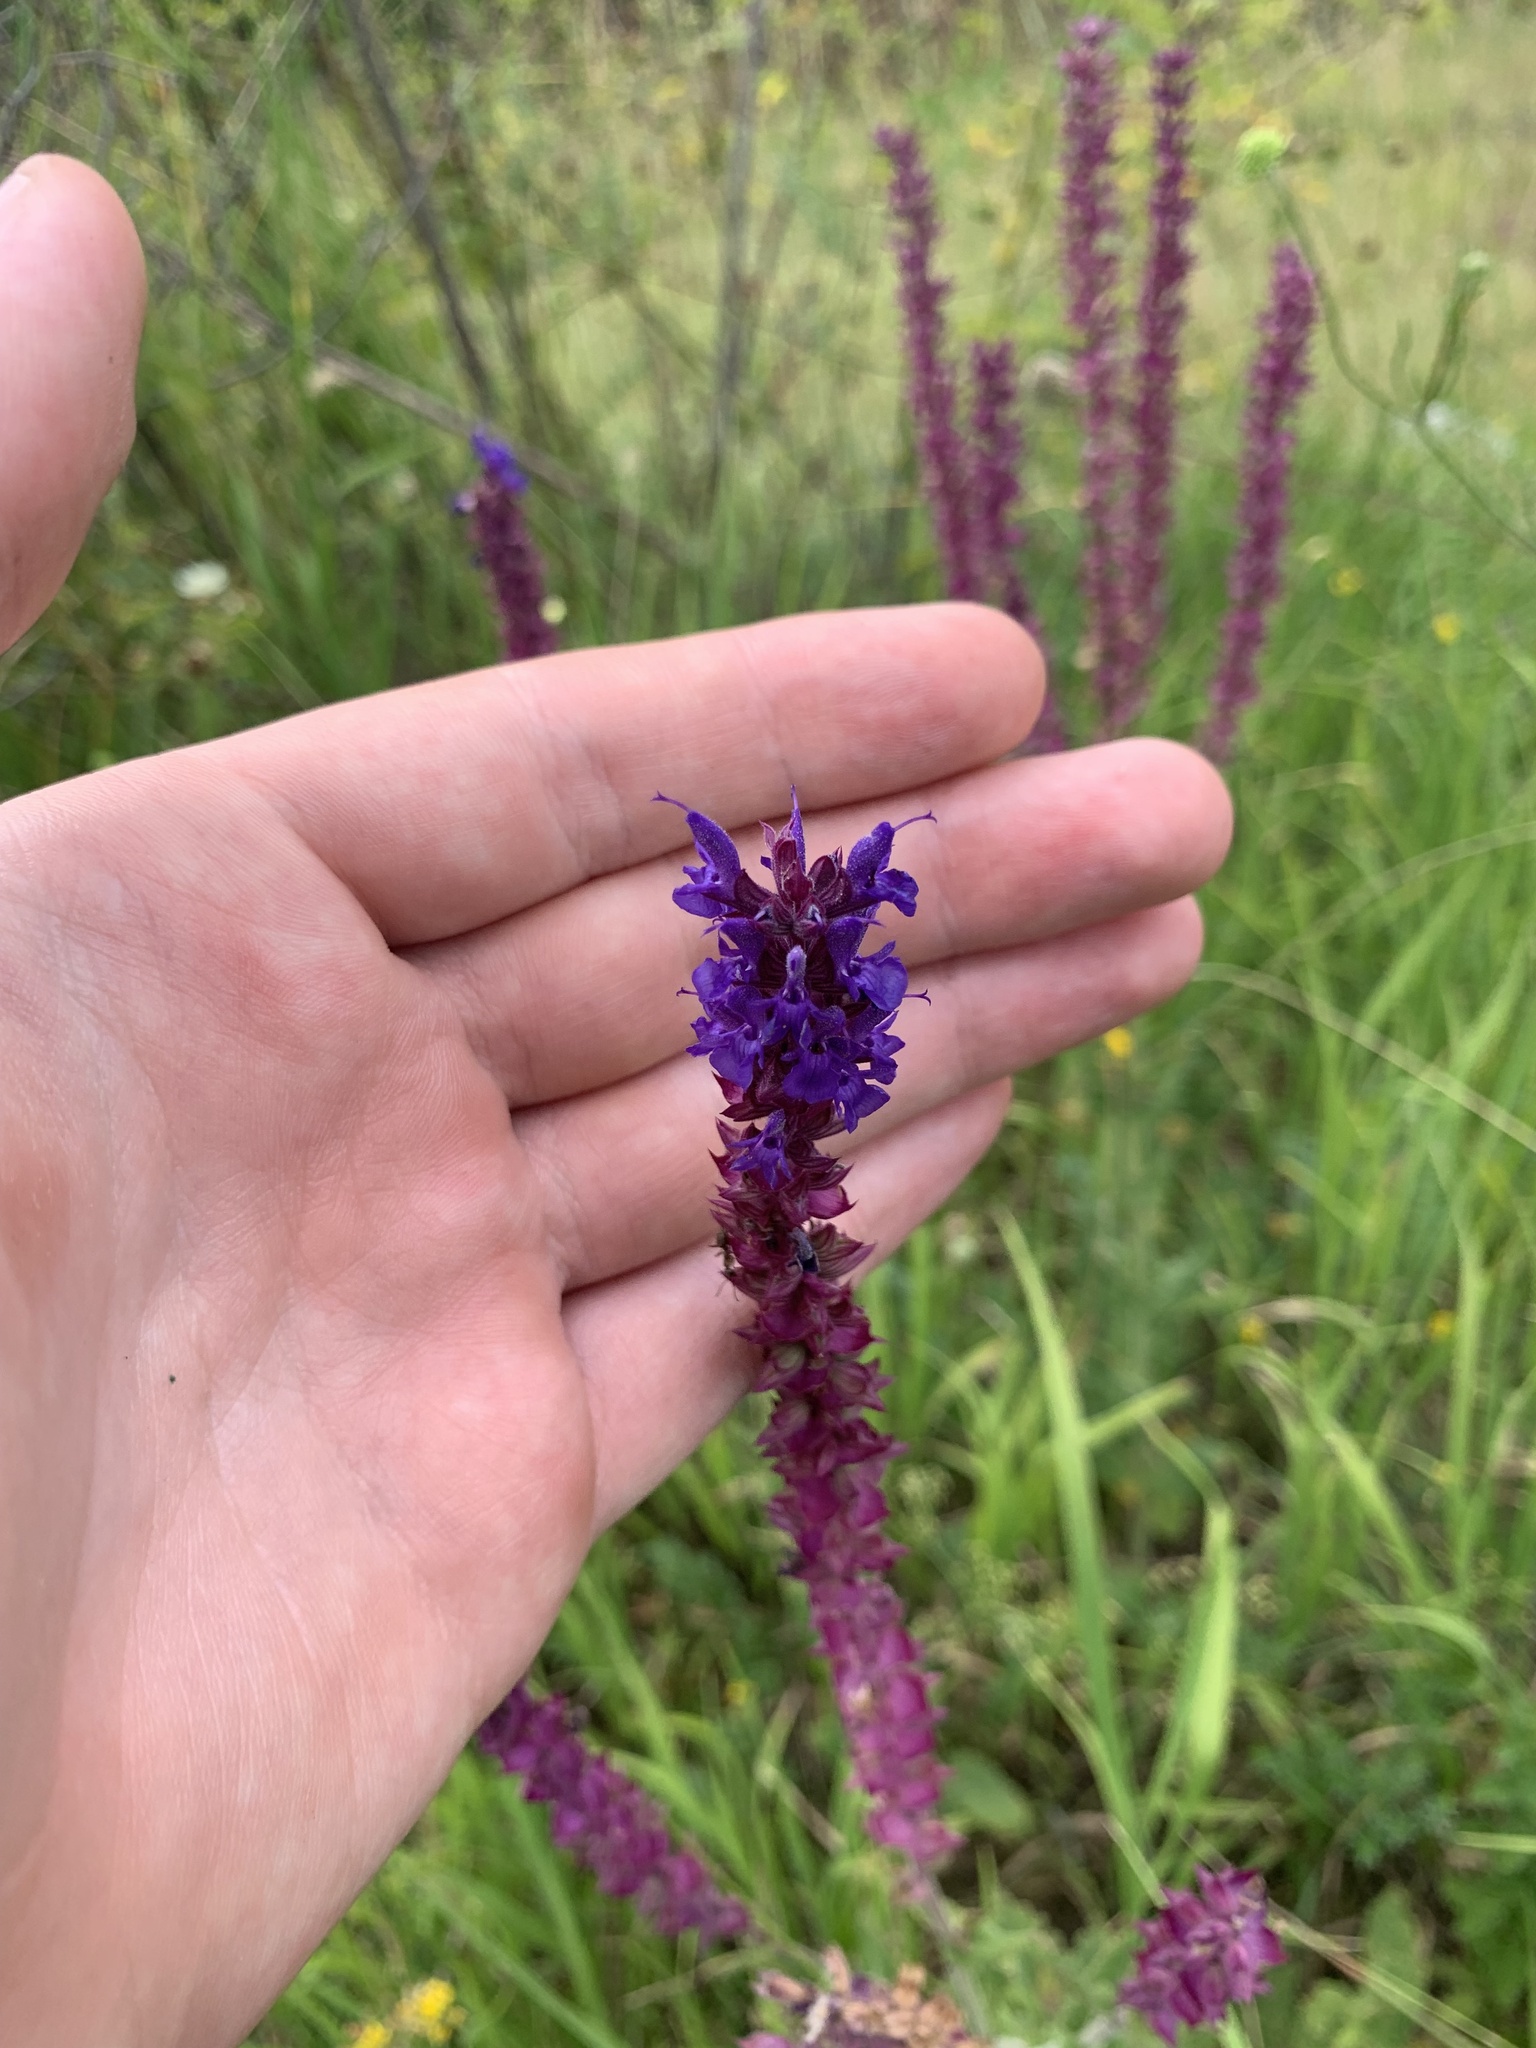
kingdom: Plantae
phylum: Tracheophyta
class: Magnoliopsida
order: Lamiales
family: Lamiaceae
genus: Salvia
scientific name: Salvia nemorosa
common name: Balkan clary
